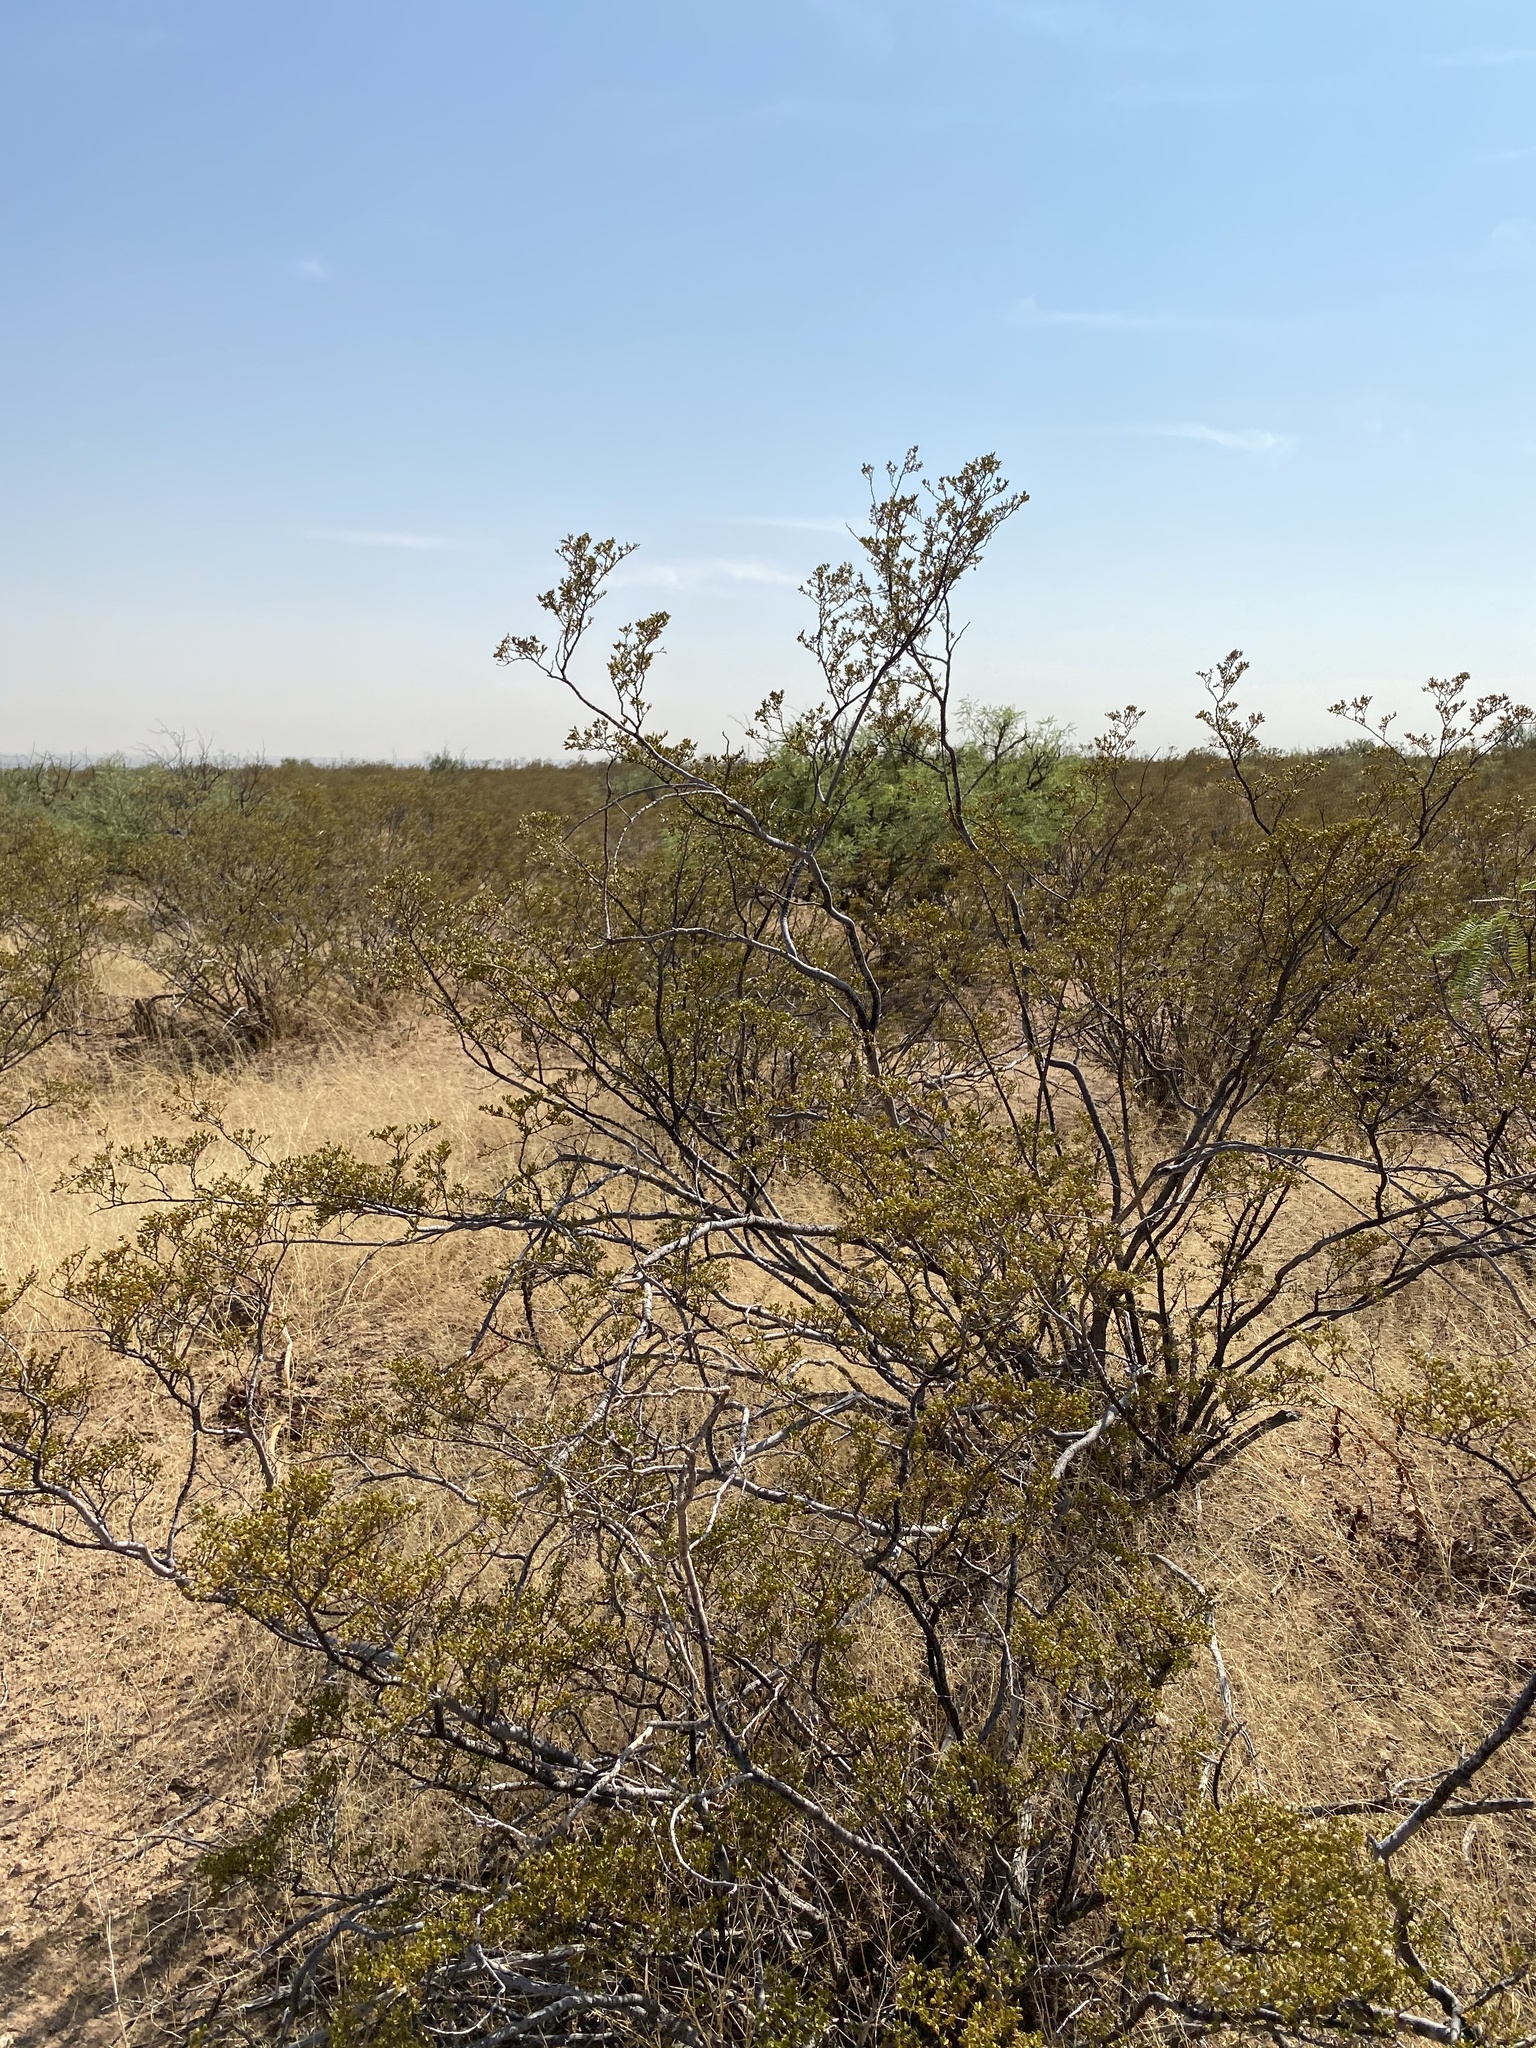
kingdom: Plantae
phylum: Tracheophyta
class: Magnoliopsida
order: Zygophyllales
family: Zygophyllaceae
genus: Larrea
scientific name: Larrea tridentata
